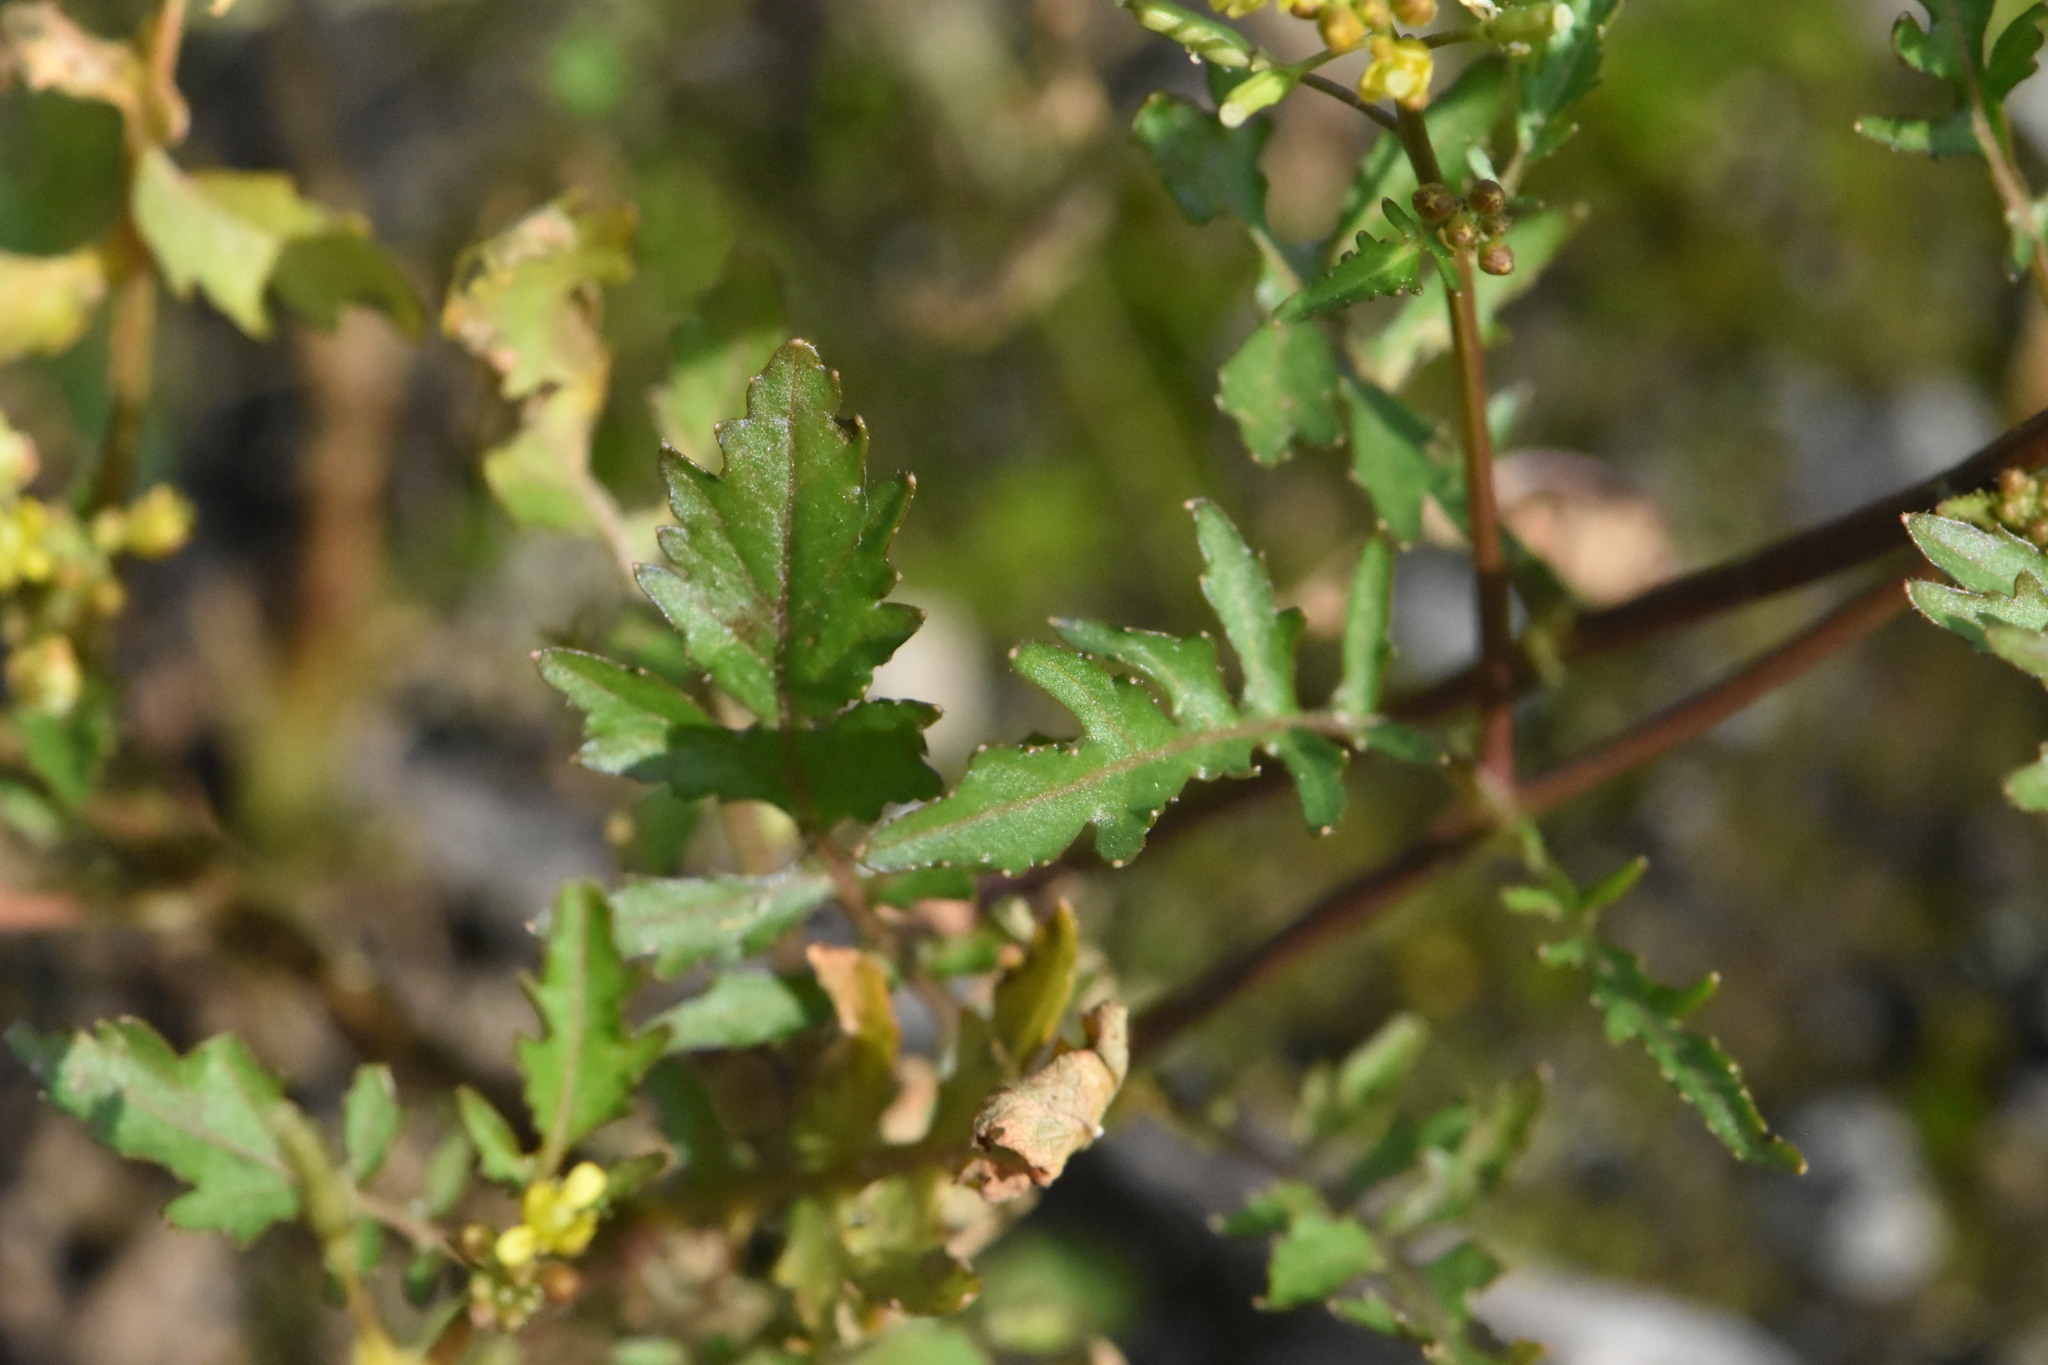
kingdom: Plantae
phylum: Tracheophyta
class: Magnoliopsida
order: Brassicales
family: Brassicaceae
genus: Rorippa
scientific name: Rorippa palustris
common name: Marsh yellow-cress
